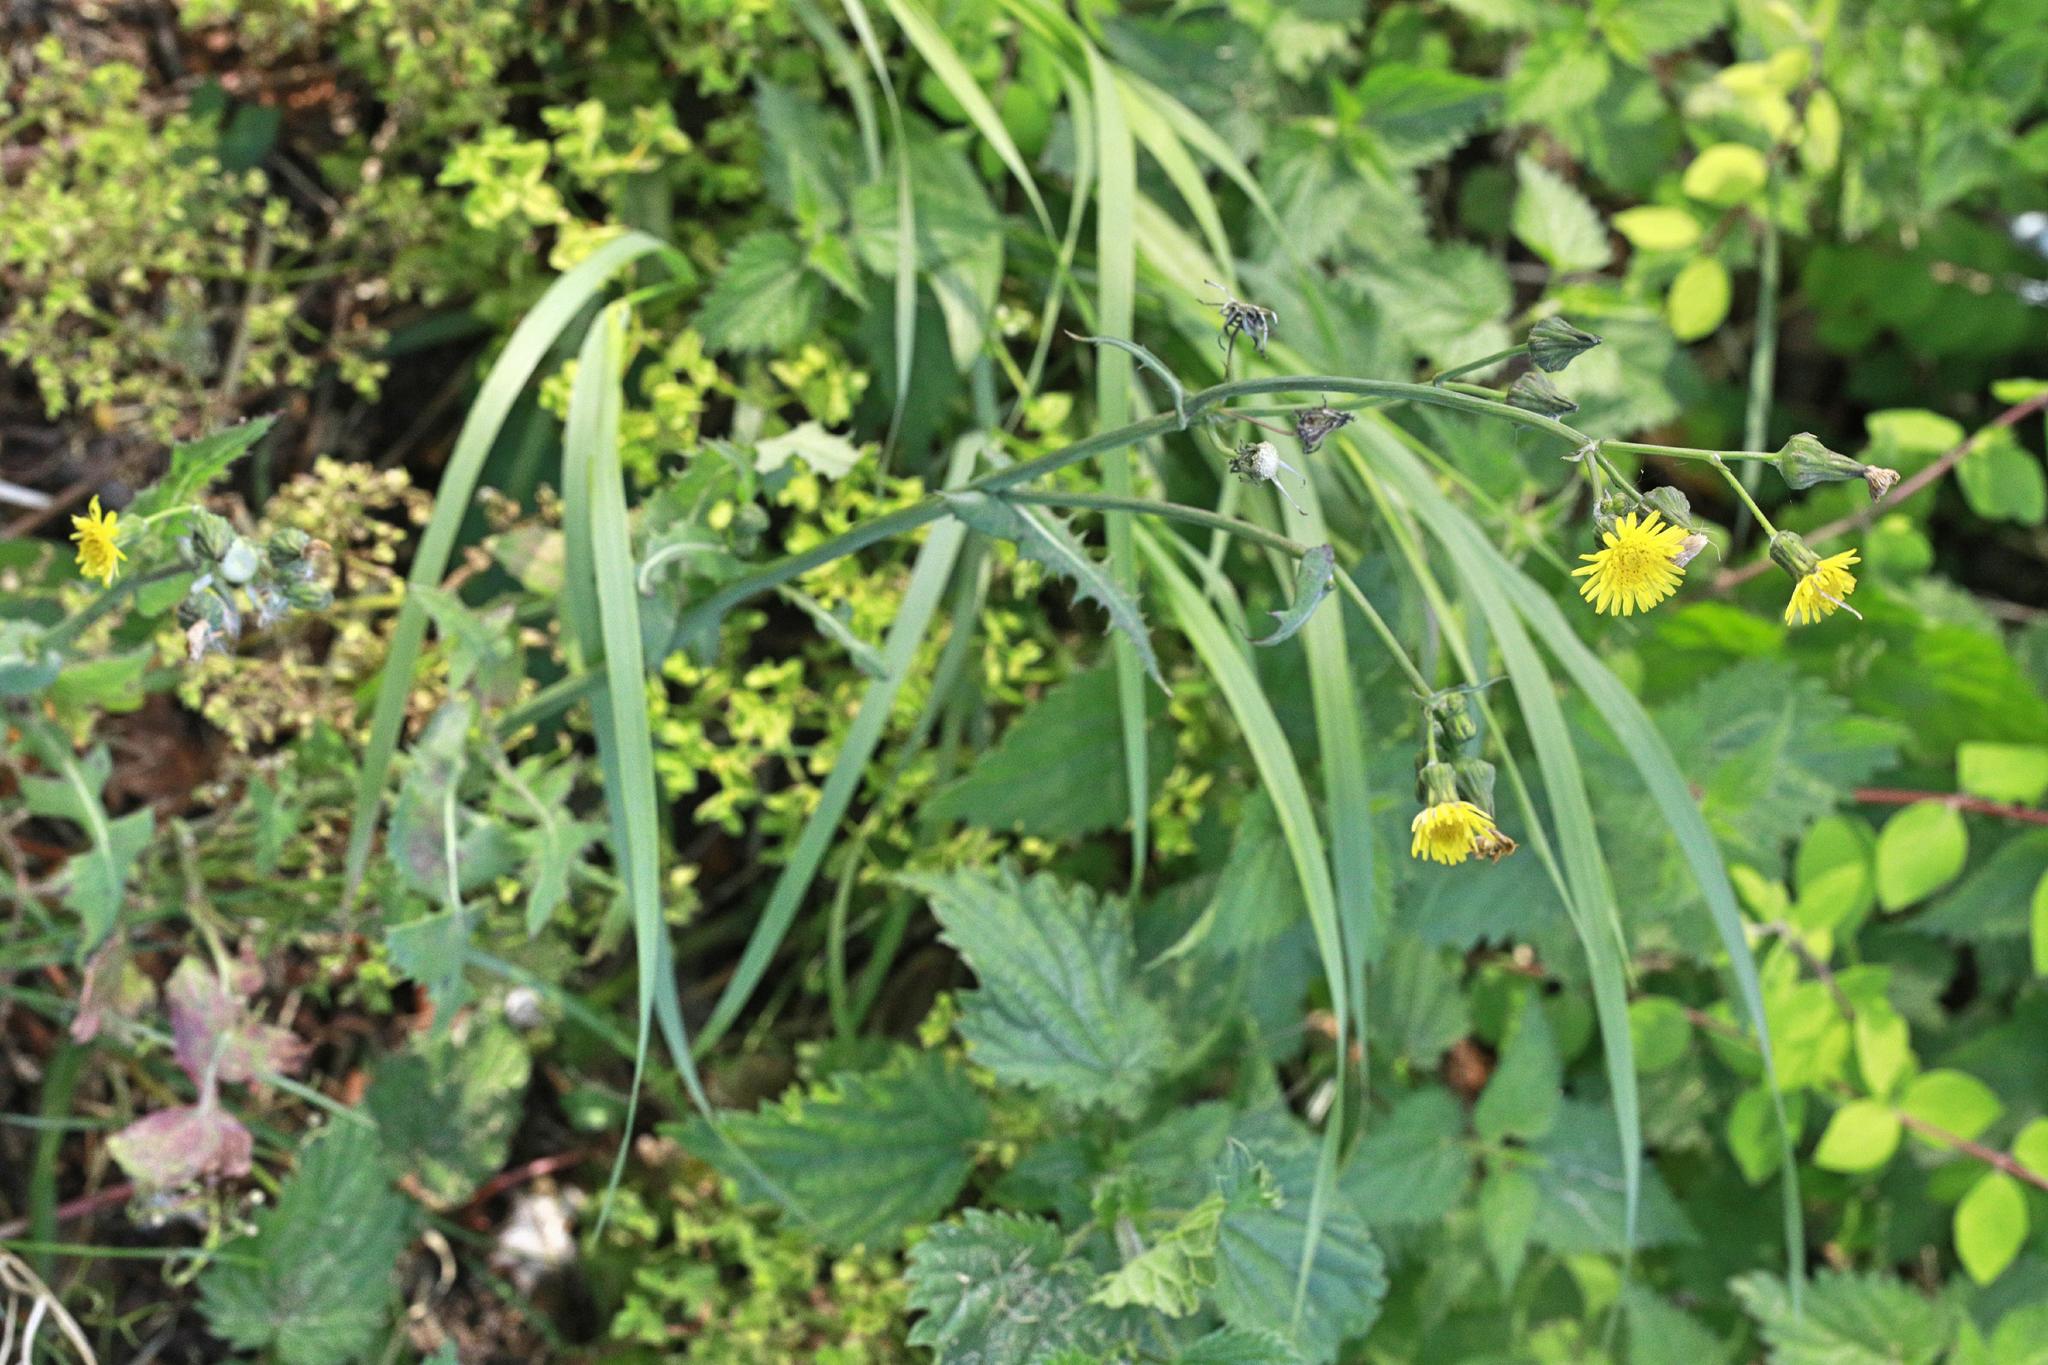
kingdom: Plantae
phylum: Tracheophyta
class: Magnoliopsida
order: Asterales
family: Asteraceae
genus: Sonchus
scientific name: Sonchus oleraceus
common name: Common sowthistle
